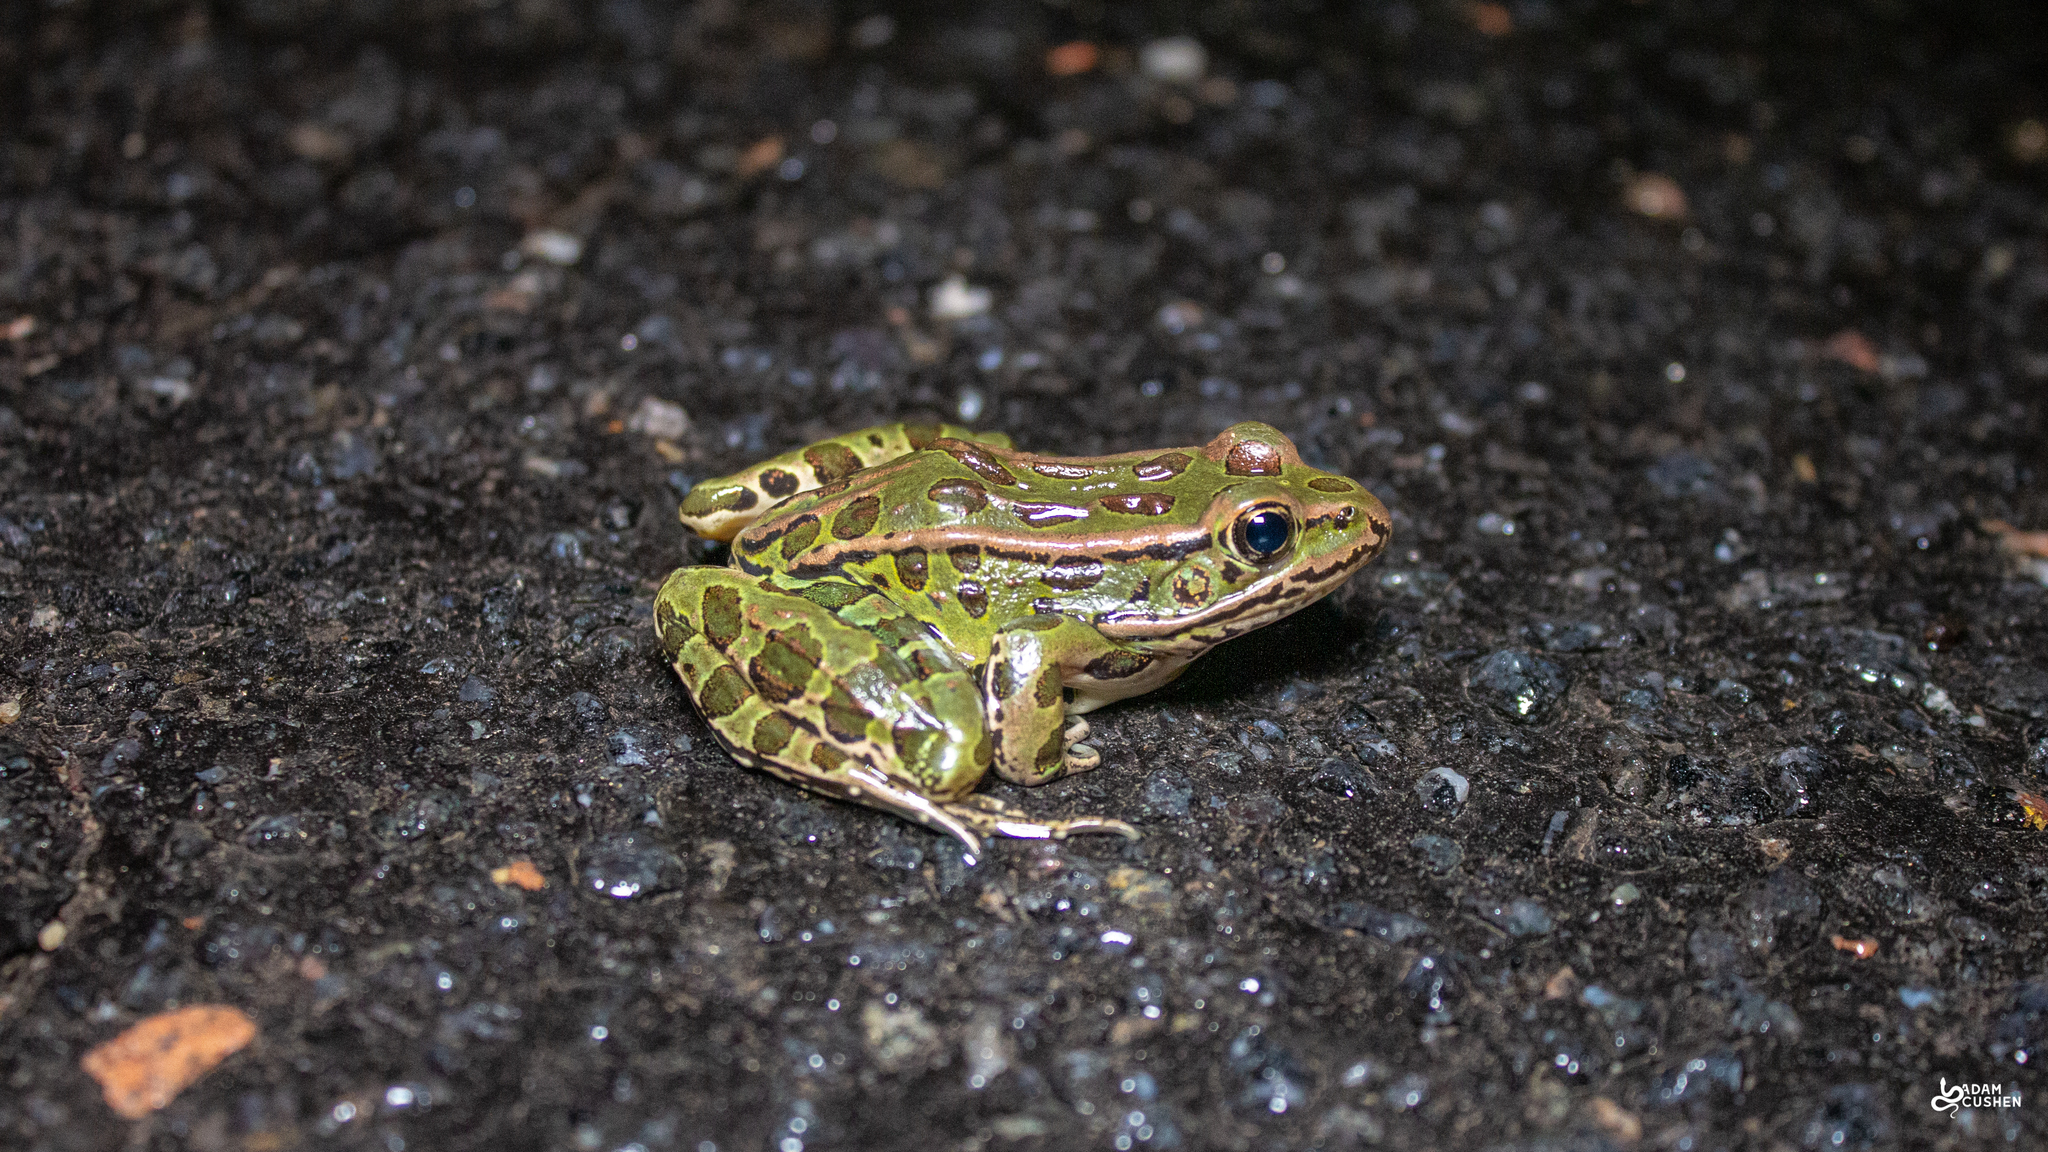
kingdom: Animalia
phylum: Chordata
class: Amphibia
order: Anura
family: Ranidae
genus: Lithobates
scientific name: Lithobates pipiens
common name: Northern leopard frog
